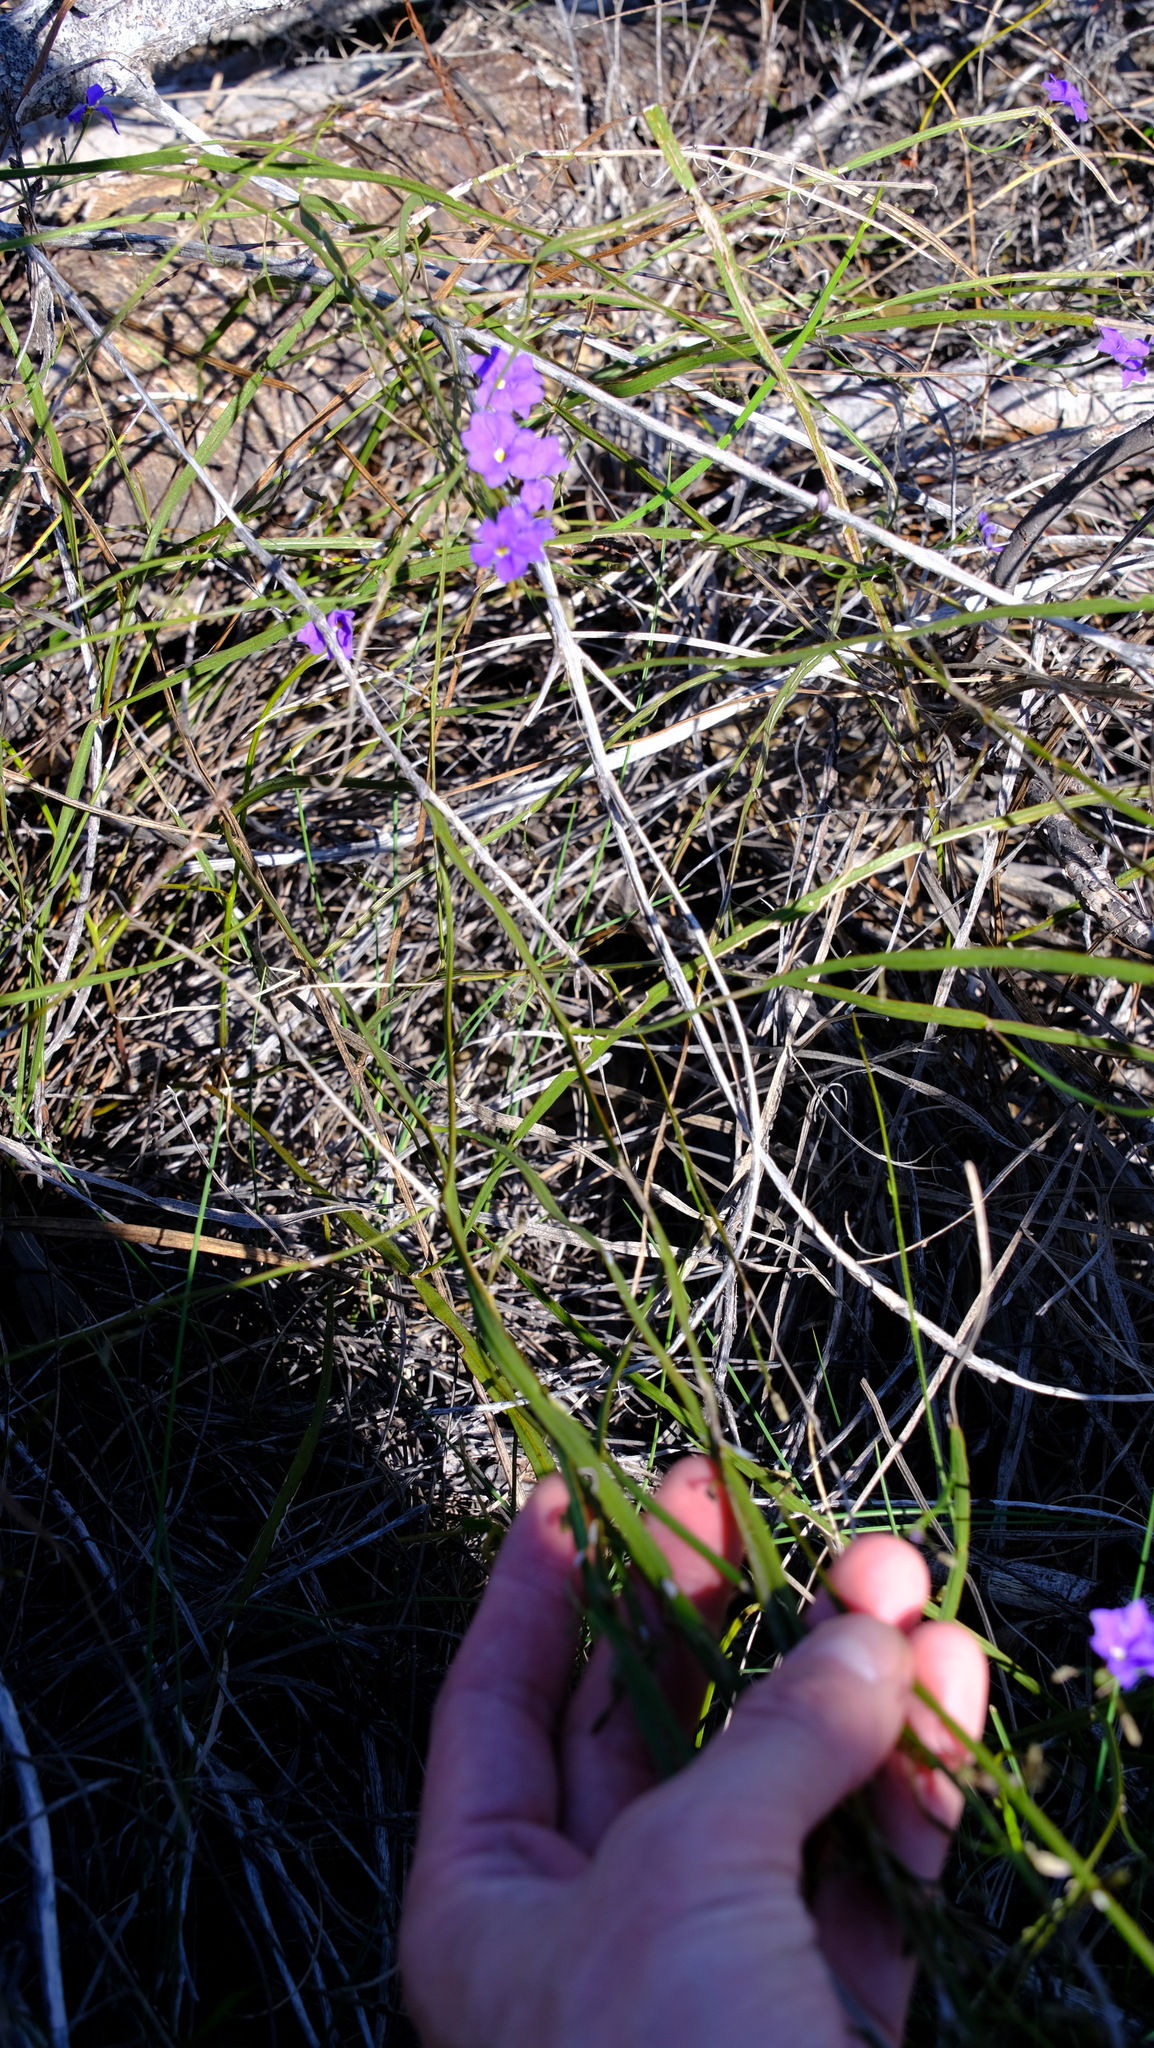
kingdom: Plantae
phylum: Tracheophyta
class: Magnoliopsida
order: Asterales
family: Goodeniaceae
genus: Dampiera
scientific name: Dampiera lindleyi
